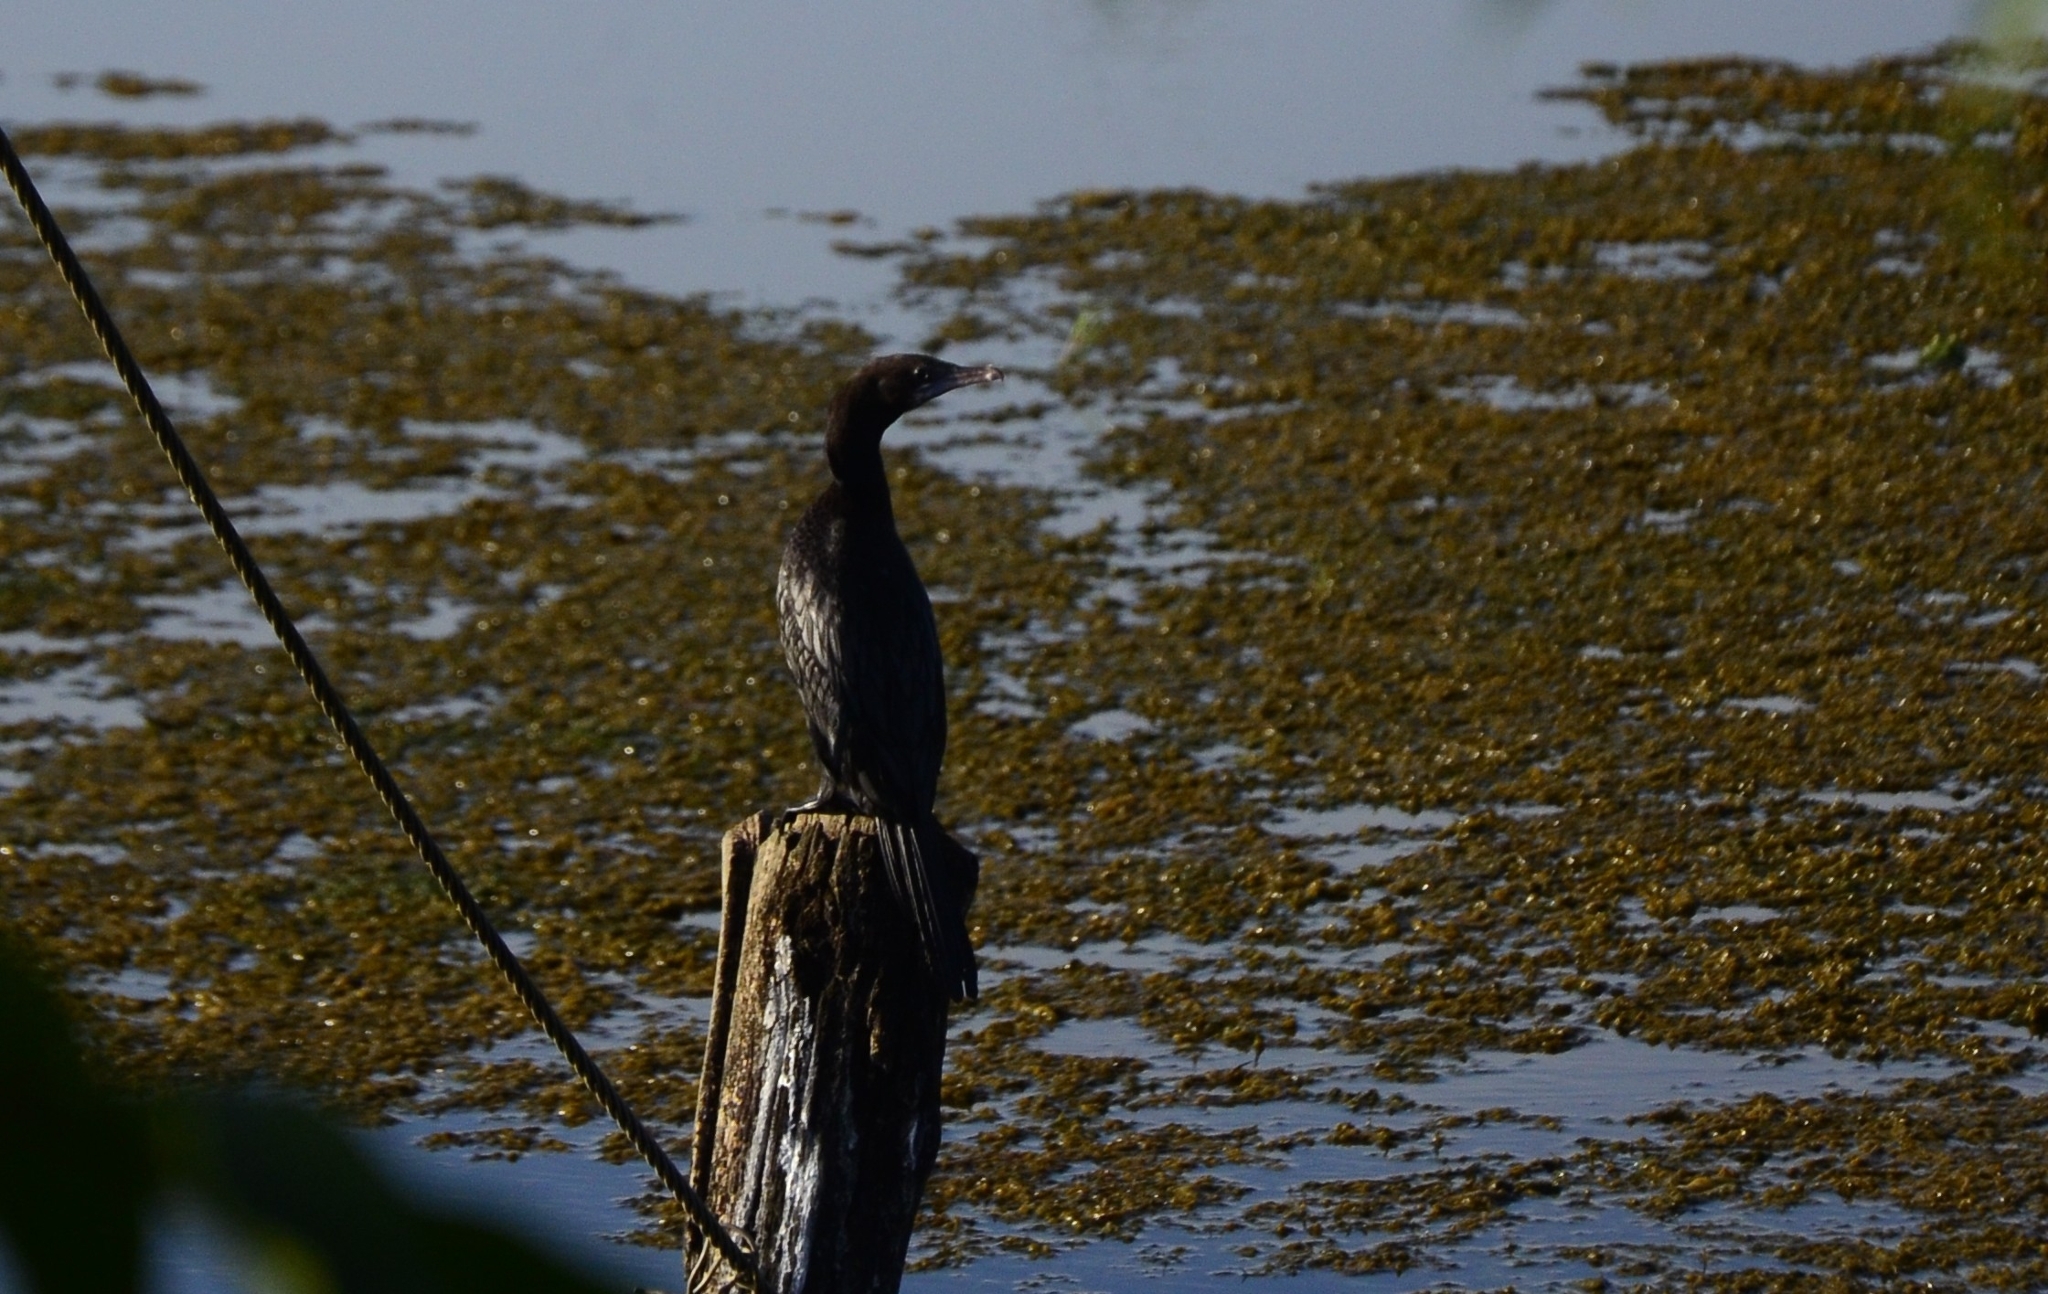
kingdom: Animalia
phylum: Chordata
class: Aves
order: Suliformes
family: Phalacrocoracidae
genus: Microcarbo
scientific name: Microcarbo niger
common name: Little cormorant
